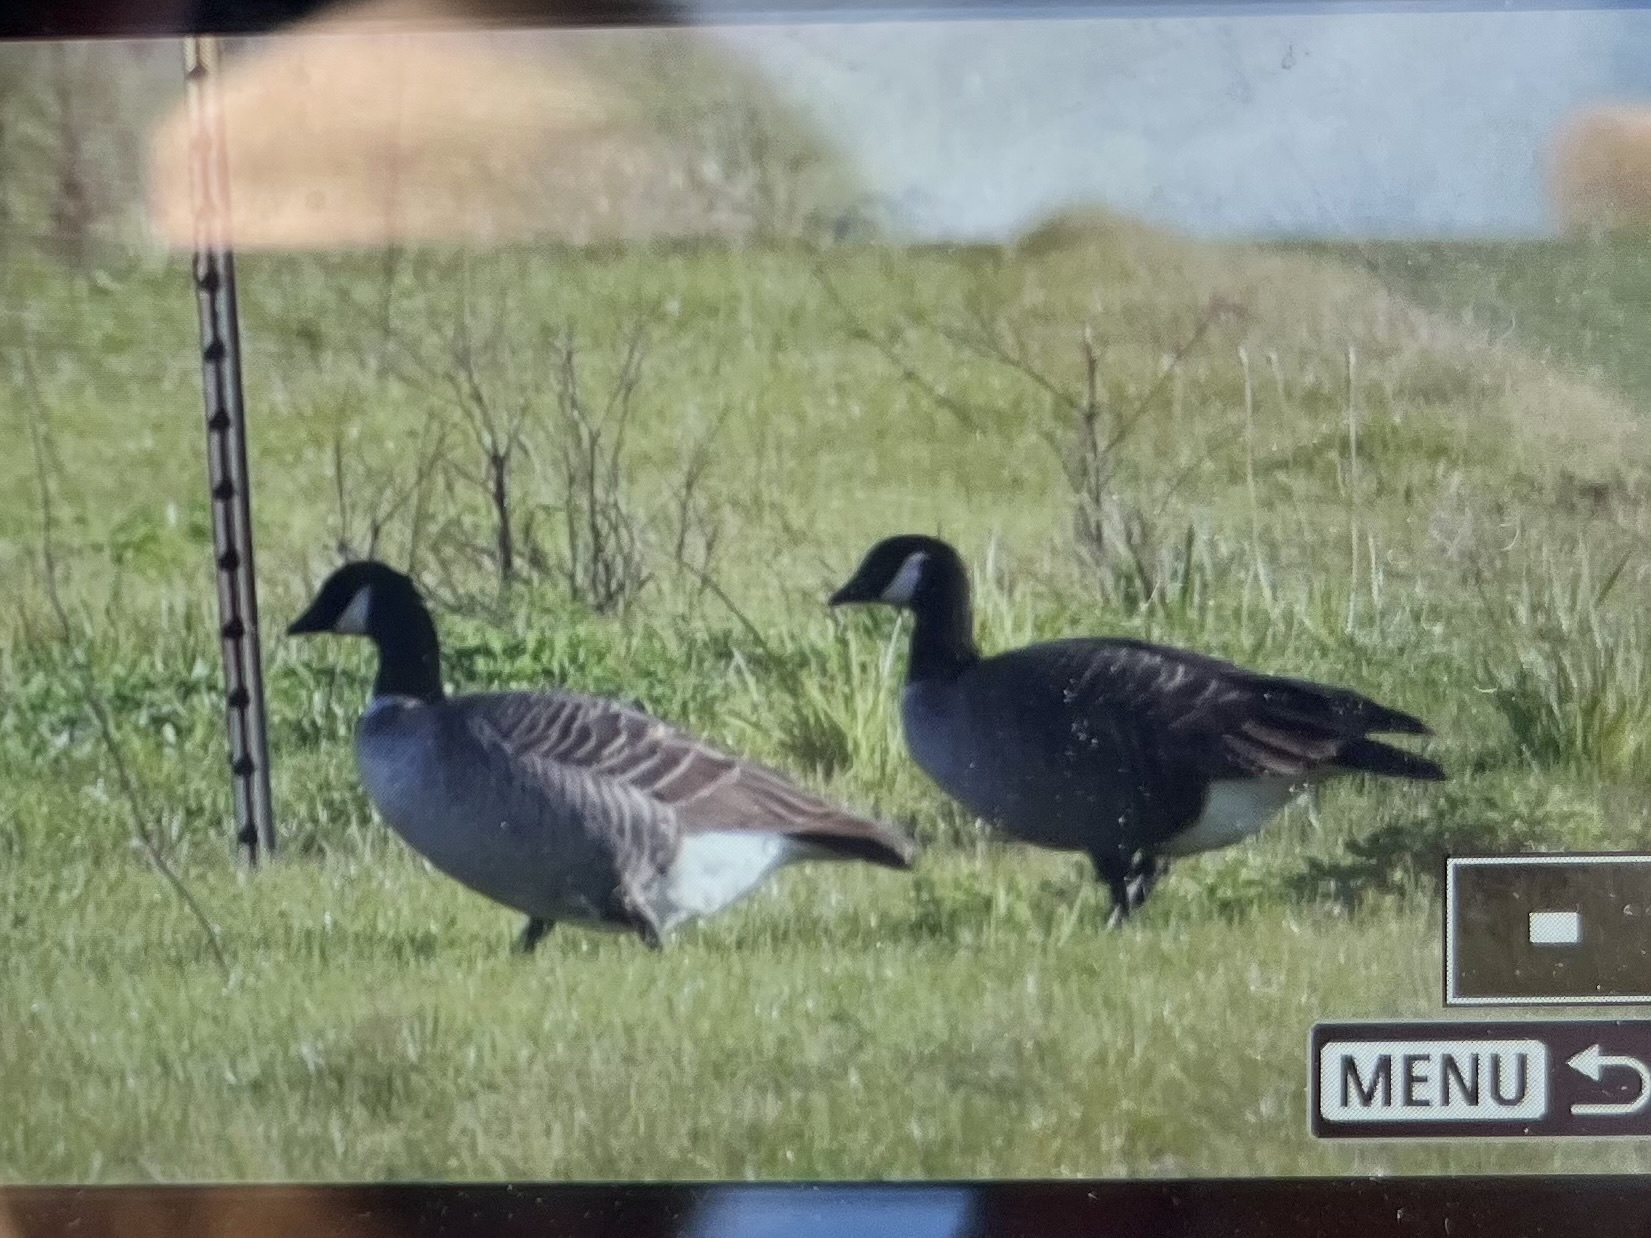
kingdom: Animalia
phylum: Chordata
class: Aves
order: Anseriformes
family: Anatidae
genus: Branta
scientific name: Branta hutchinsii
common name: Cackling goose
